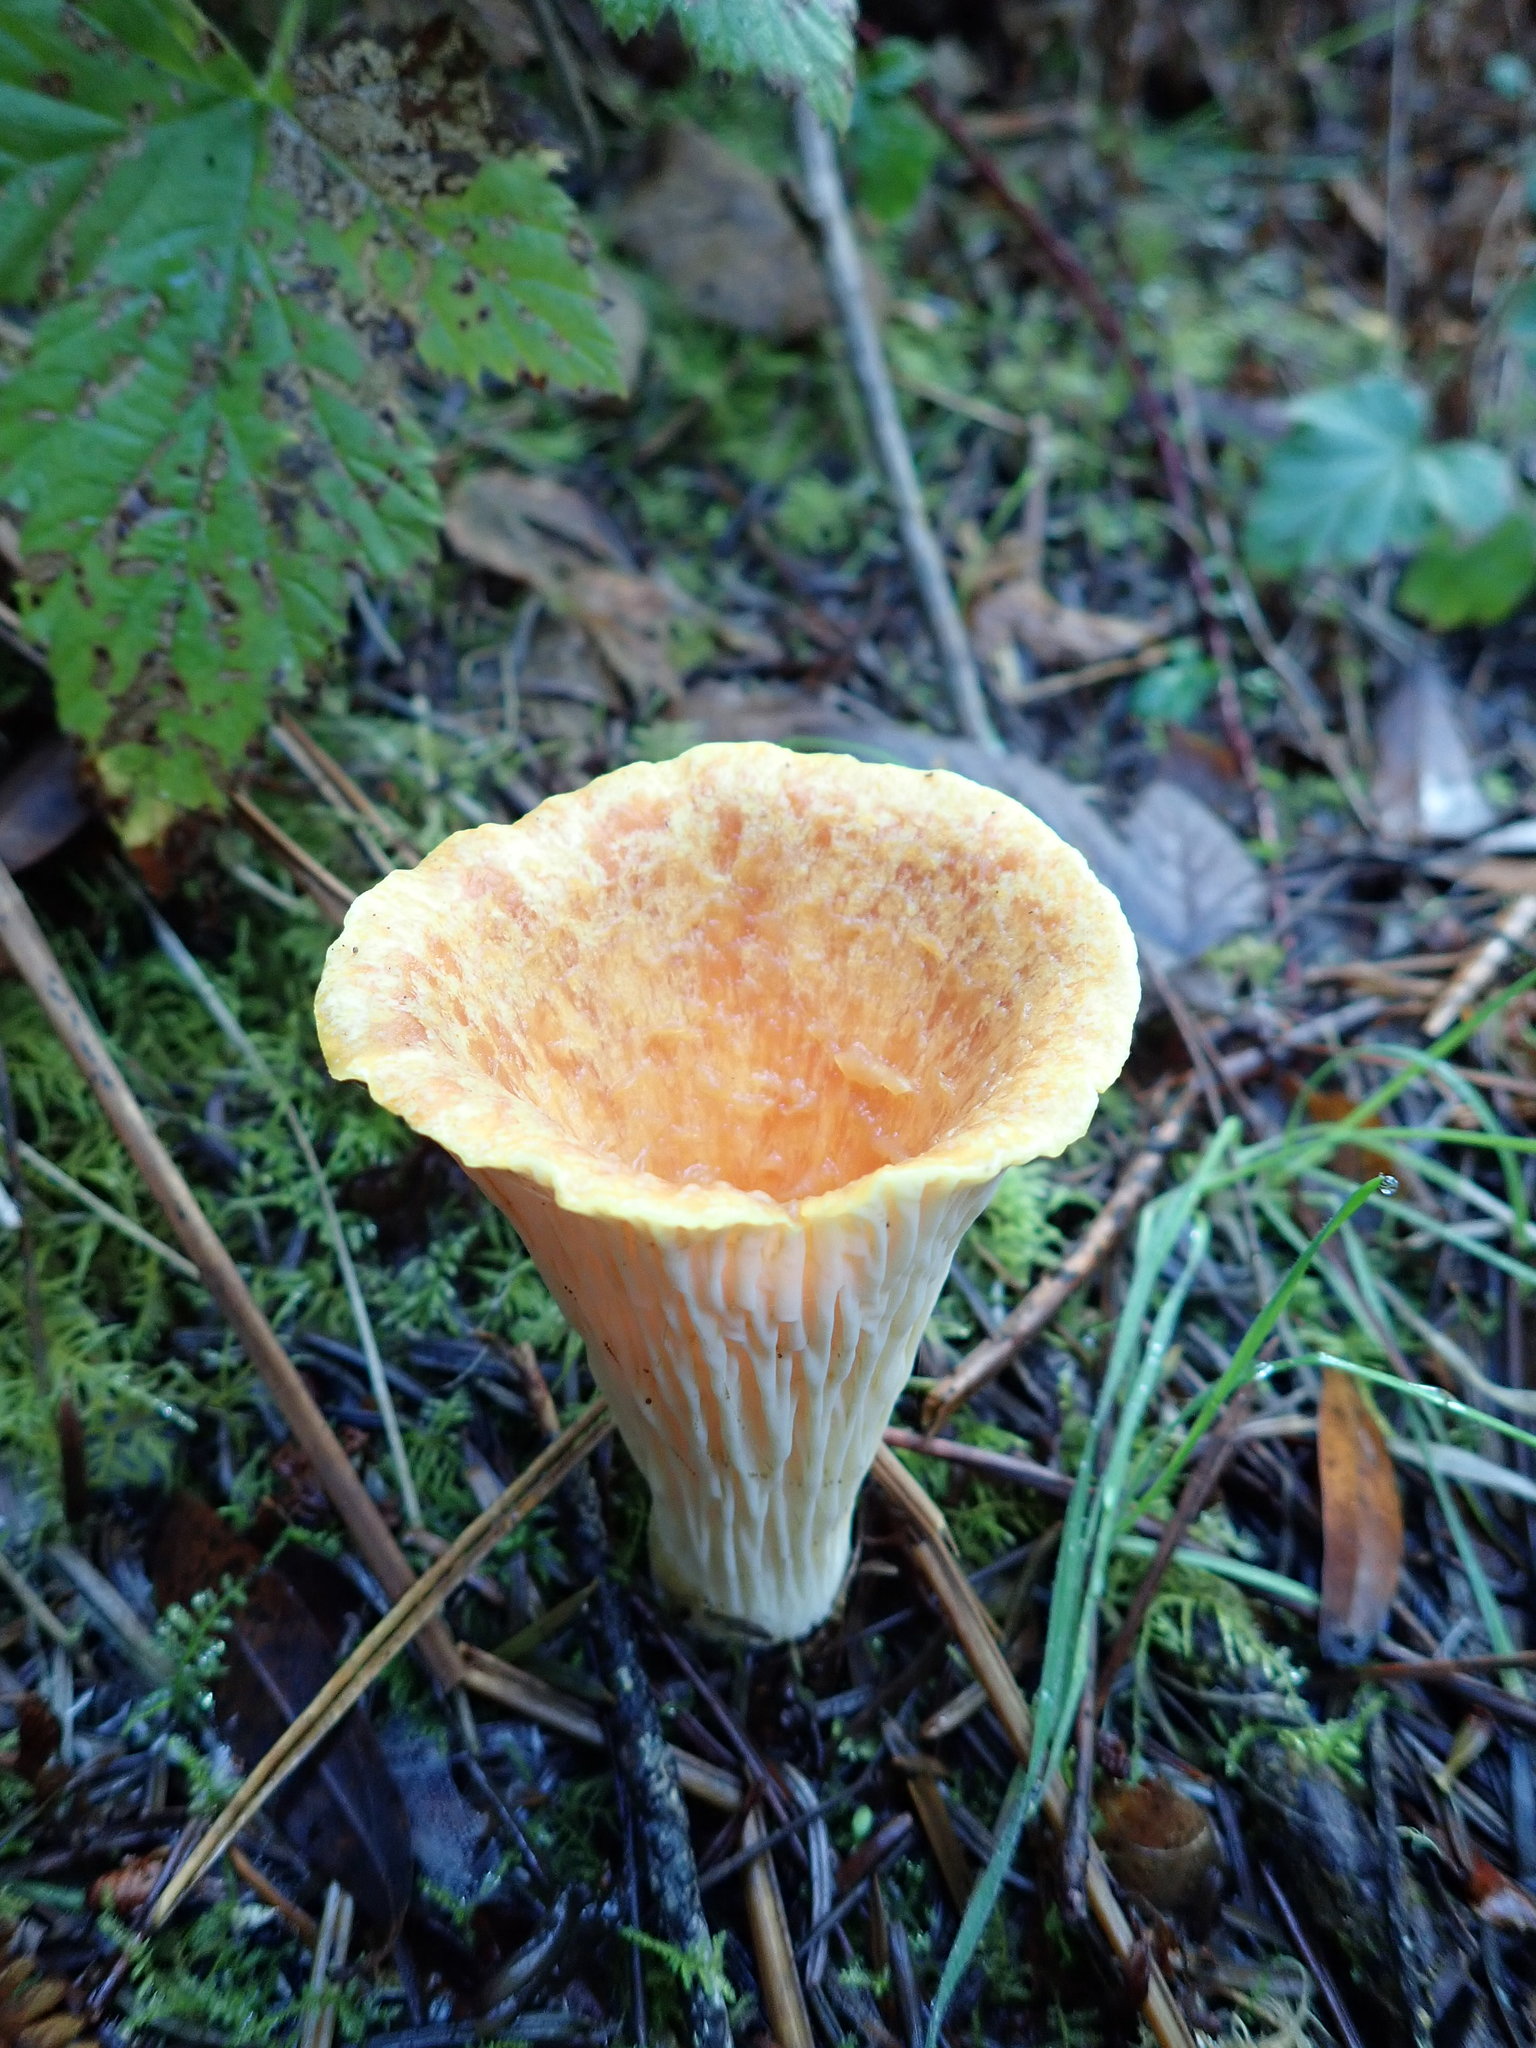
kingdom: Fungi
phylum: Basidiomycota
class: Agaricomycetes
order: Gomphales
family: Gomphaceae
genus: Turbinellus
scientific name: Turbinellus floccosus
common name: Scaly chanterelle
